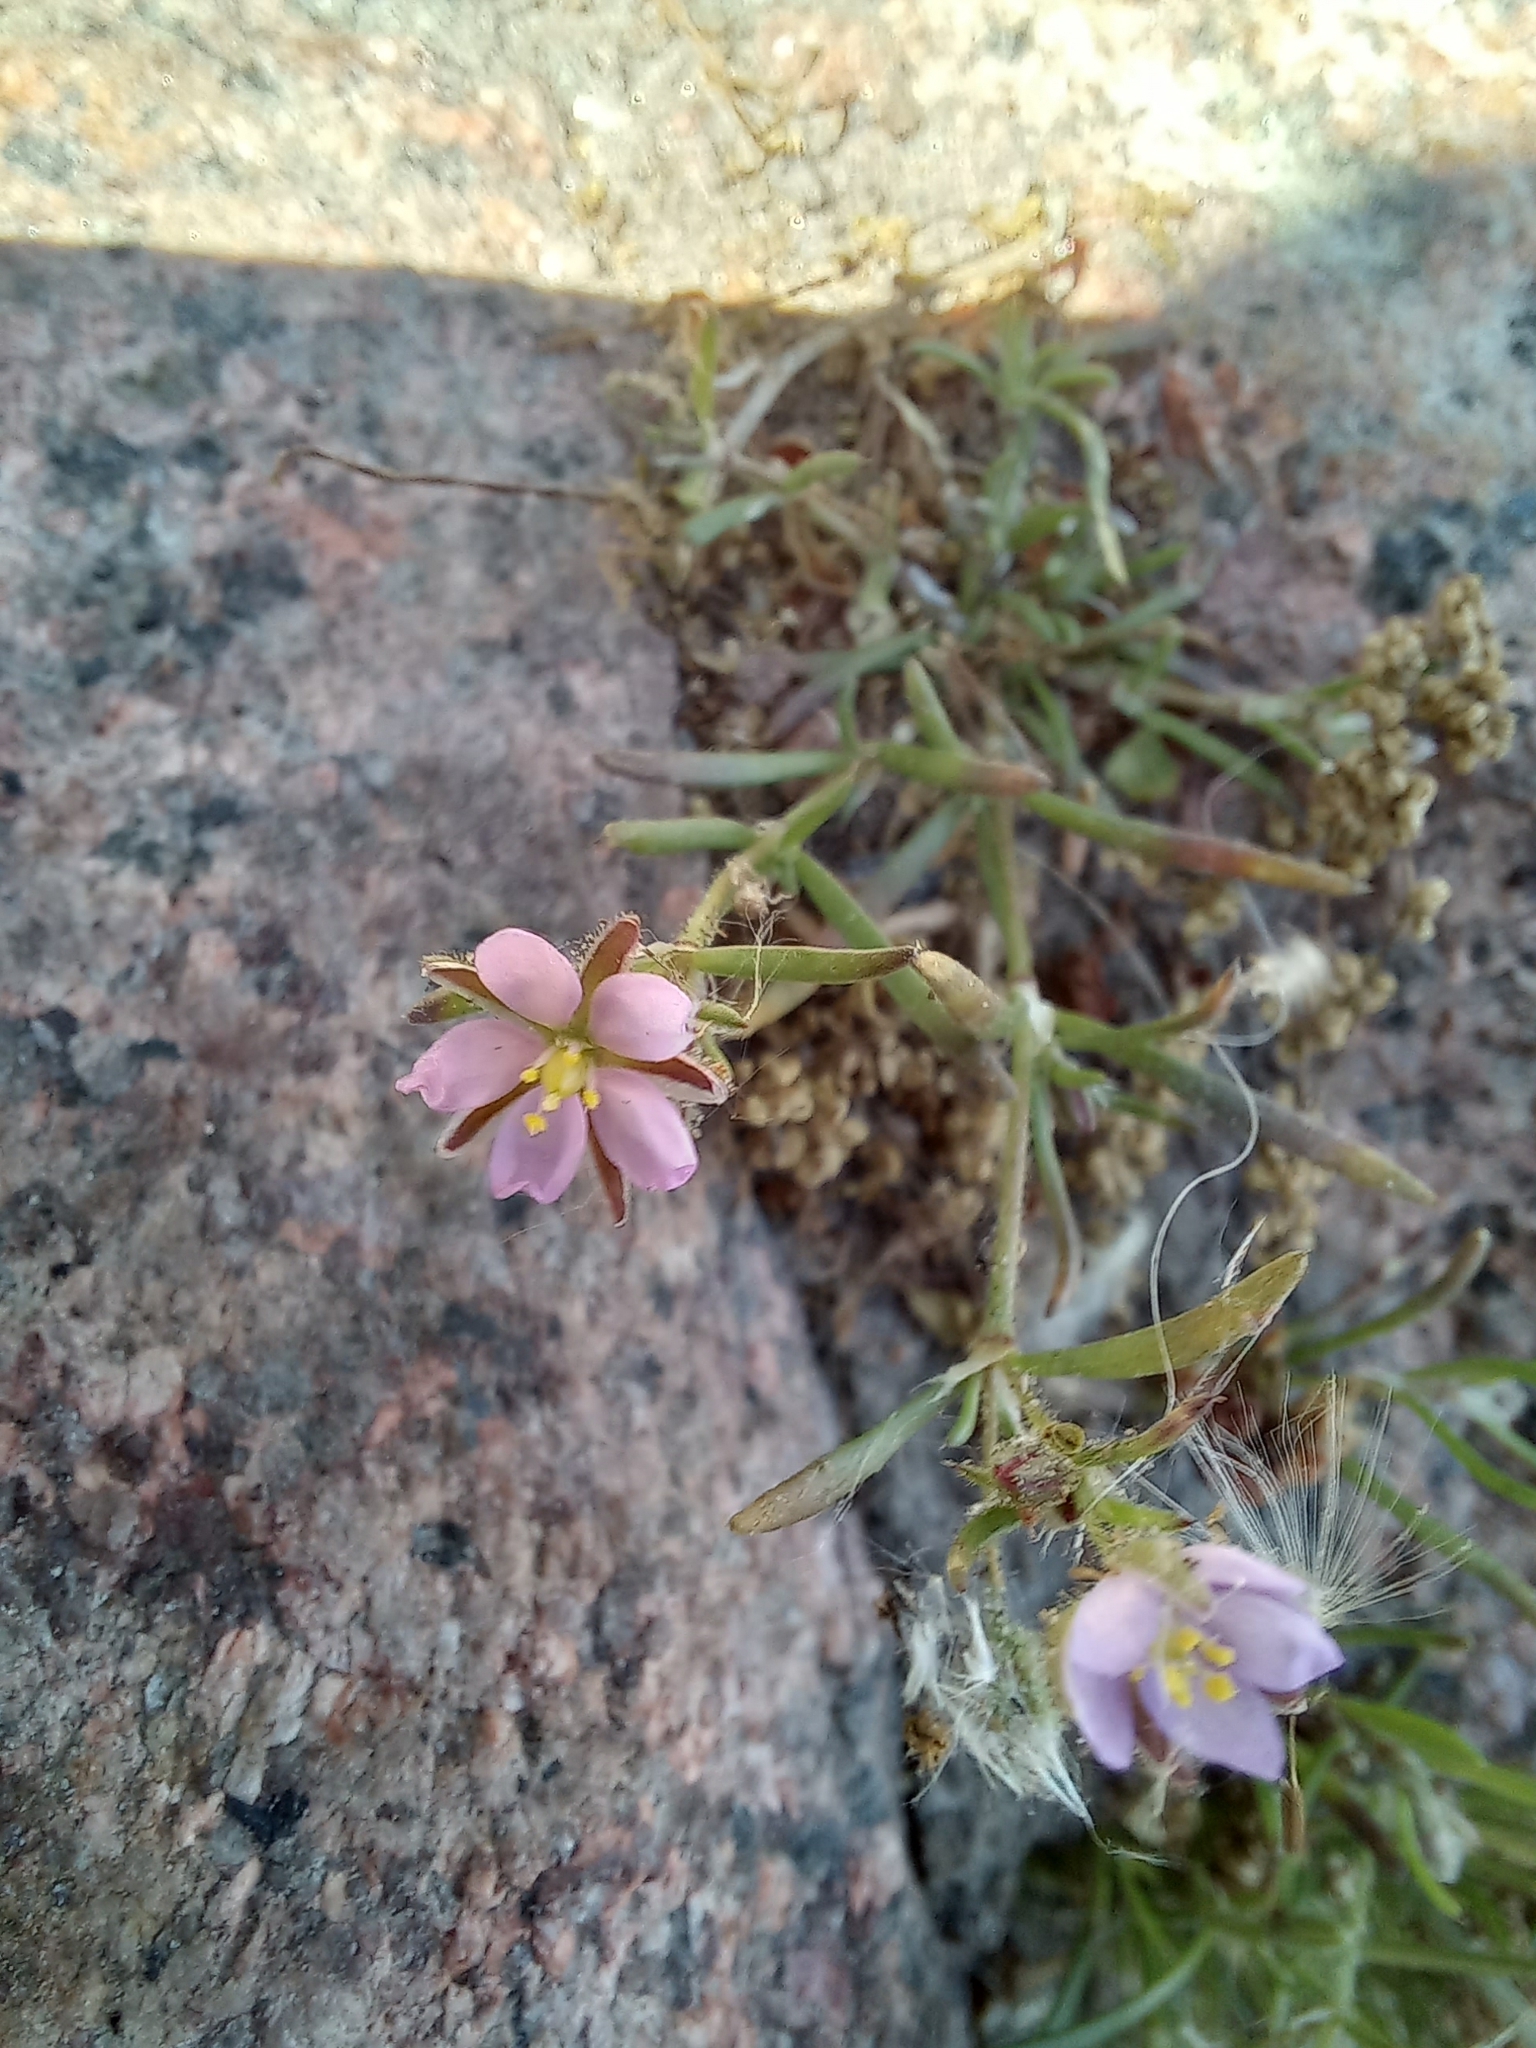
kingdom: Plantae
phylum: Tracheophyta
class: Magnoliopsida
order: Caryophyllales
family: Caryophyllaceae
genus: Spergularia
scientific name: Spergularia rubra
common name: Red sand-spurrey
